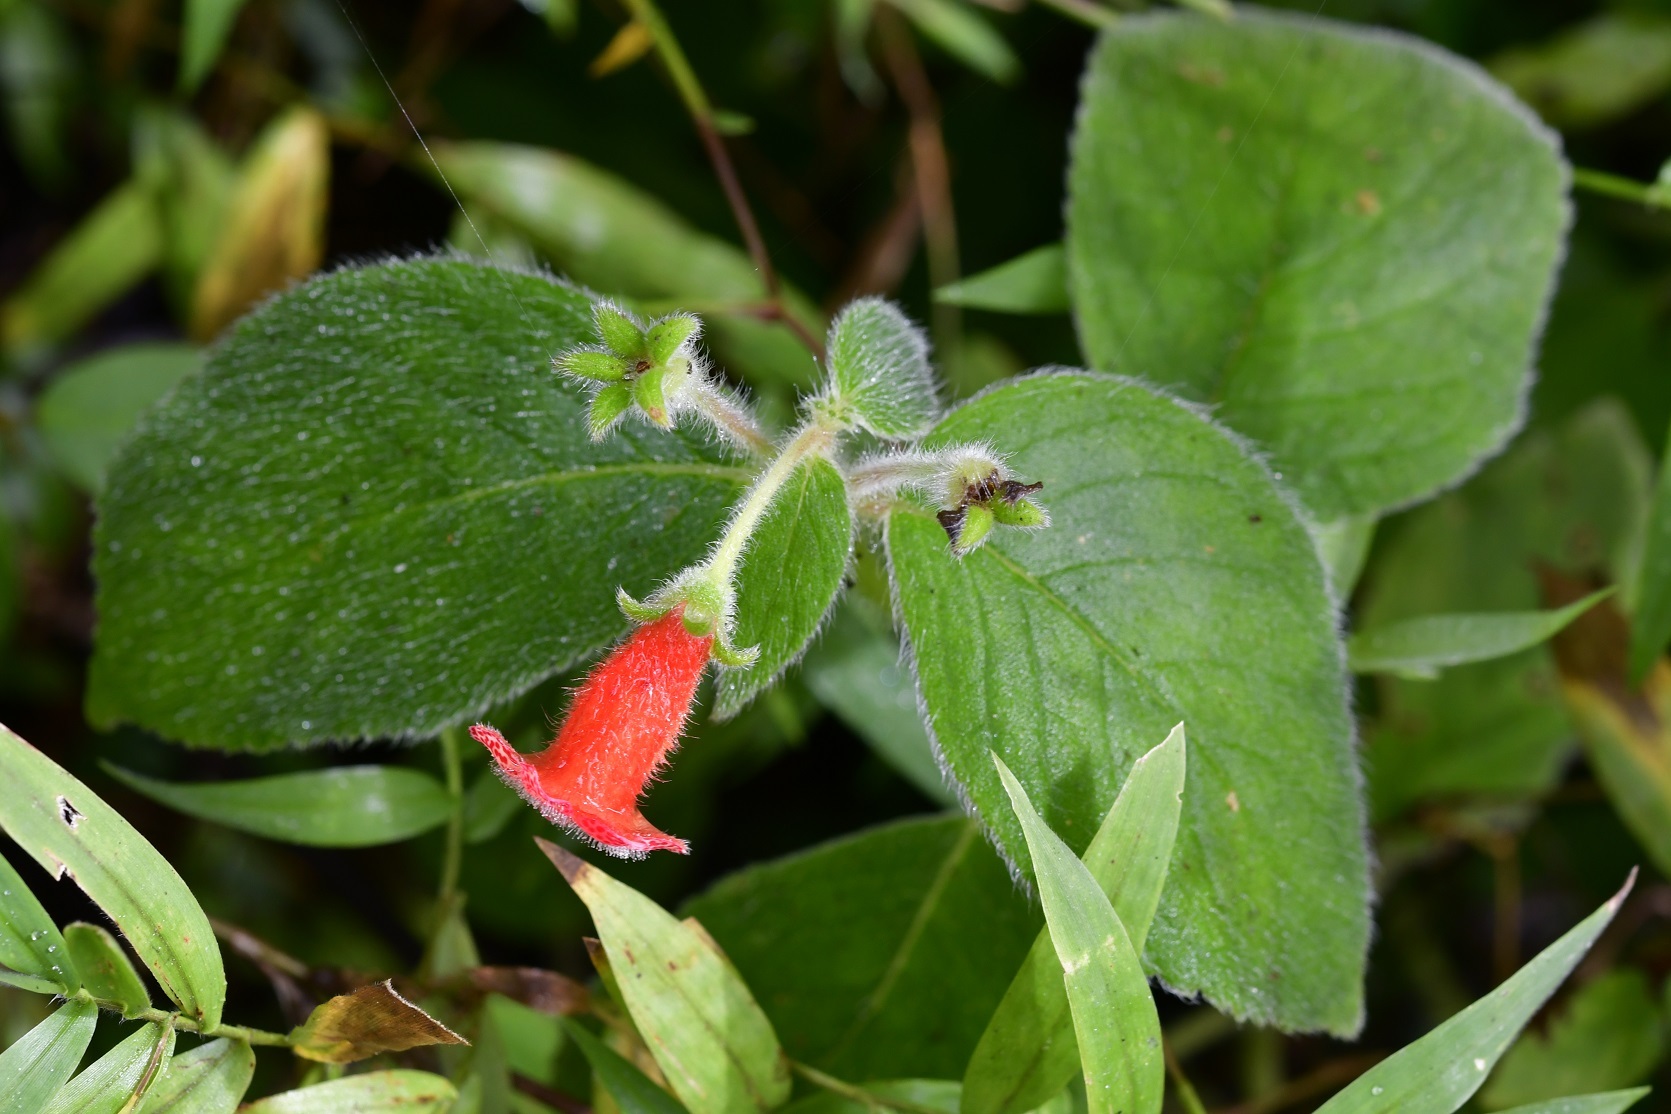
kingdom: Plantae
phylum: Tracheophyta
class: Magnoliopsida
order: Lamiales
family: Gesneriaceae
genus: Kohleria
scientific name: Kohleria rugata
